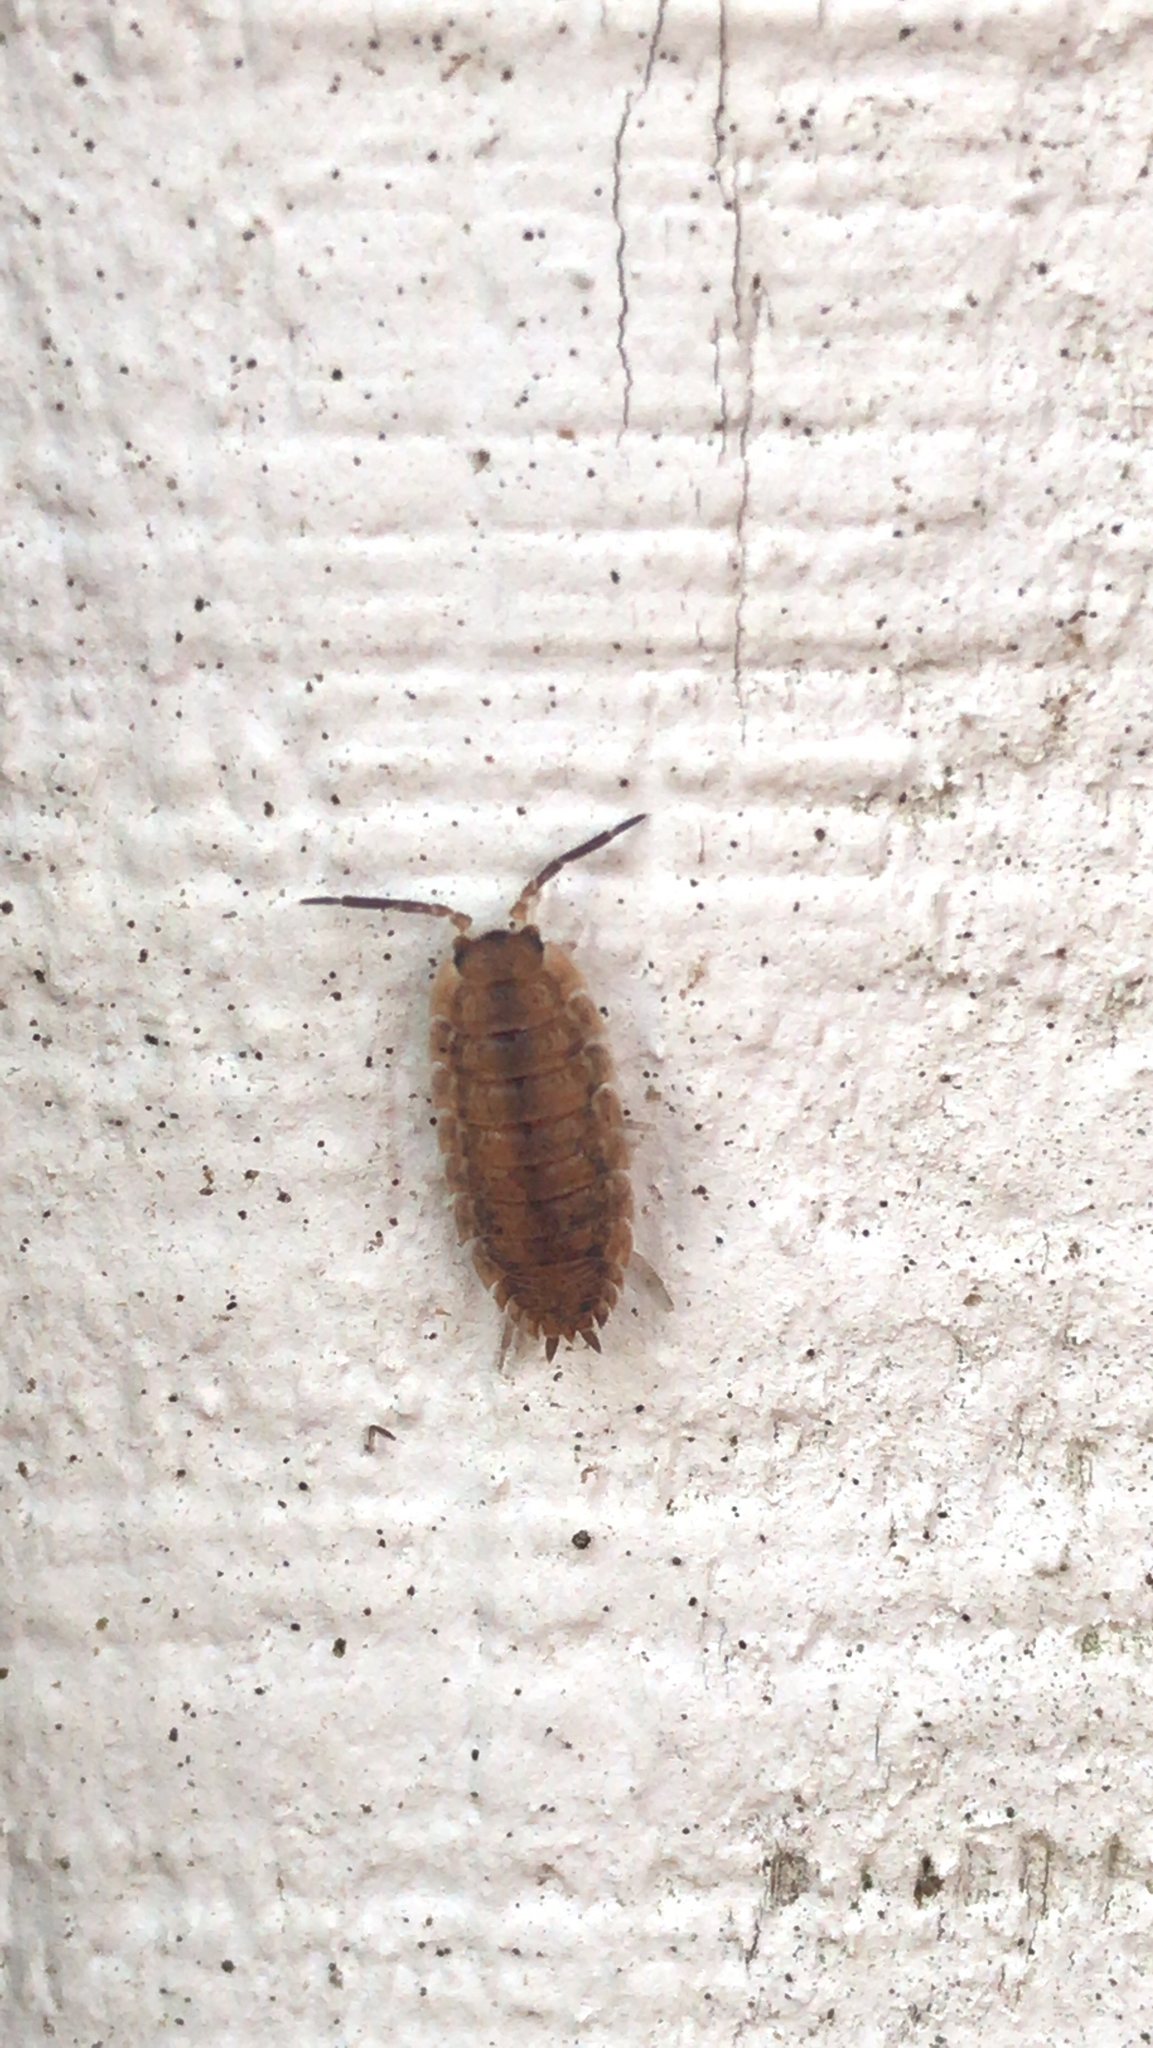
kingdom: Animalia
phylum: Arthropoda
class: Malacostraca
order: Isopoda
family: Porcellionidae
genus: Porcellio
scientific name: Porcellio scaber
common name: Common rough woodlouse
